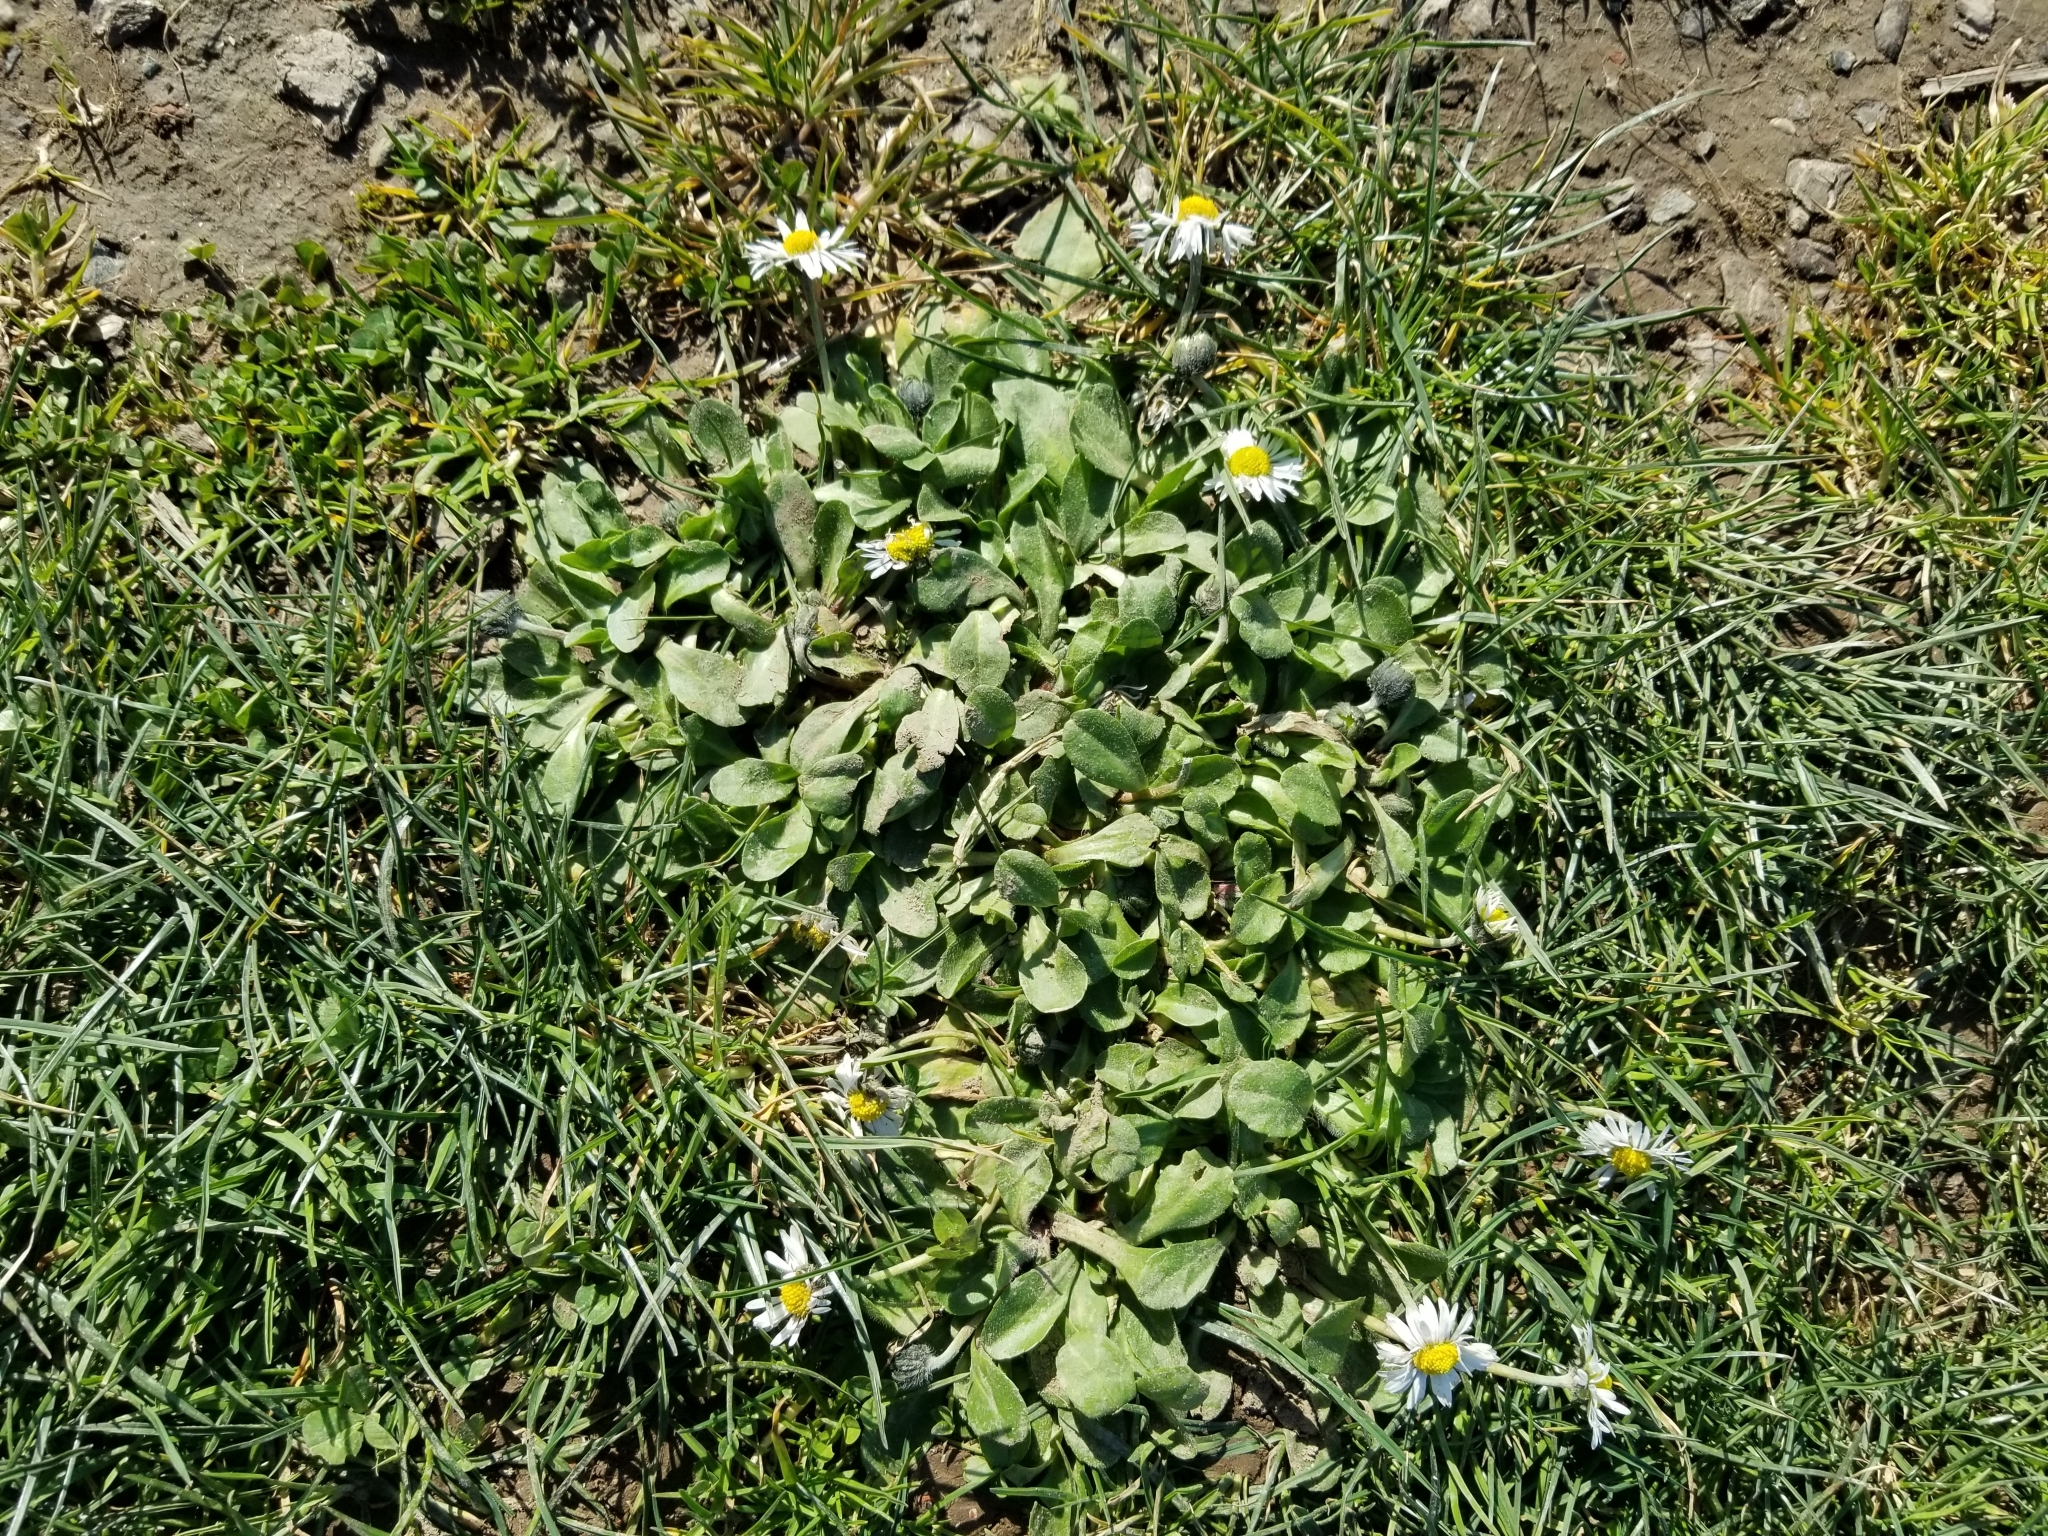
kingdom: Plantae
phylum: Tracheophyta
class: Magnoliopsida
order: Asterales
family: Asteraceae
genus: Bellis
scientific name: Bellis perennis
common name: Lawndaisy
